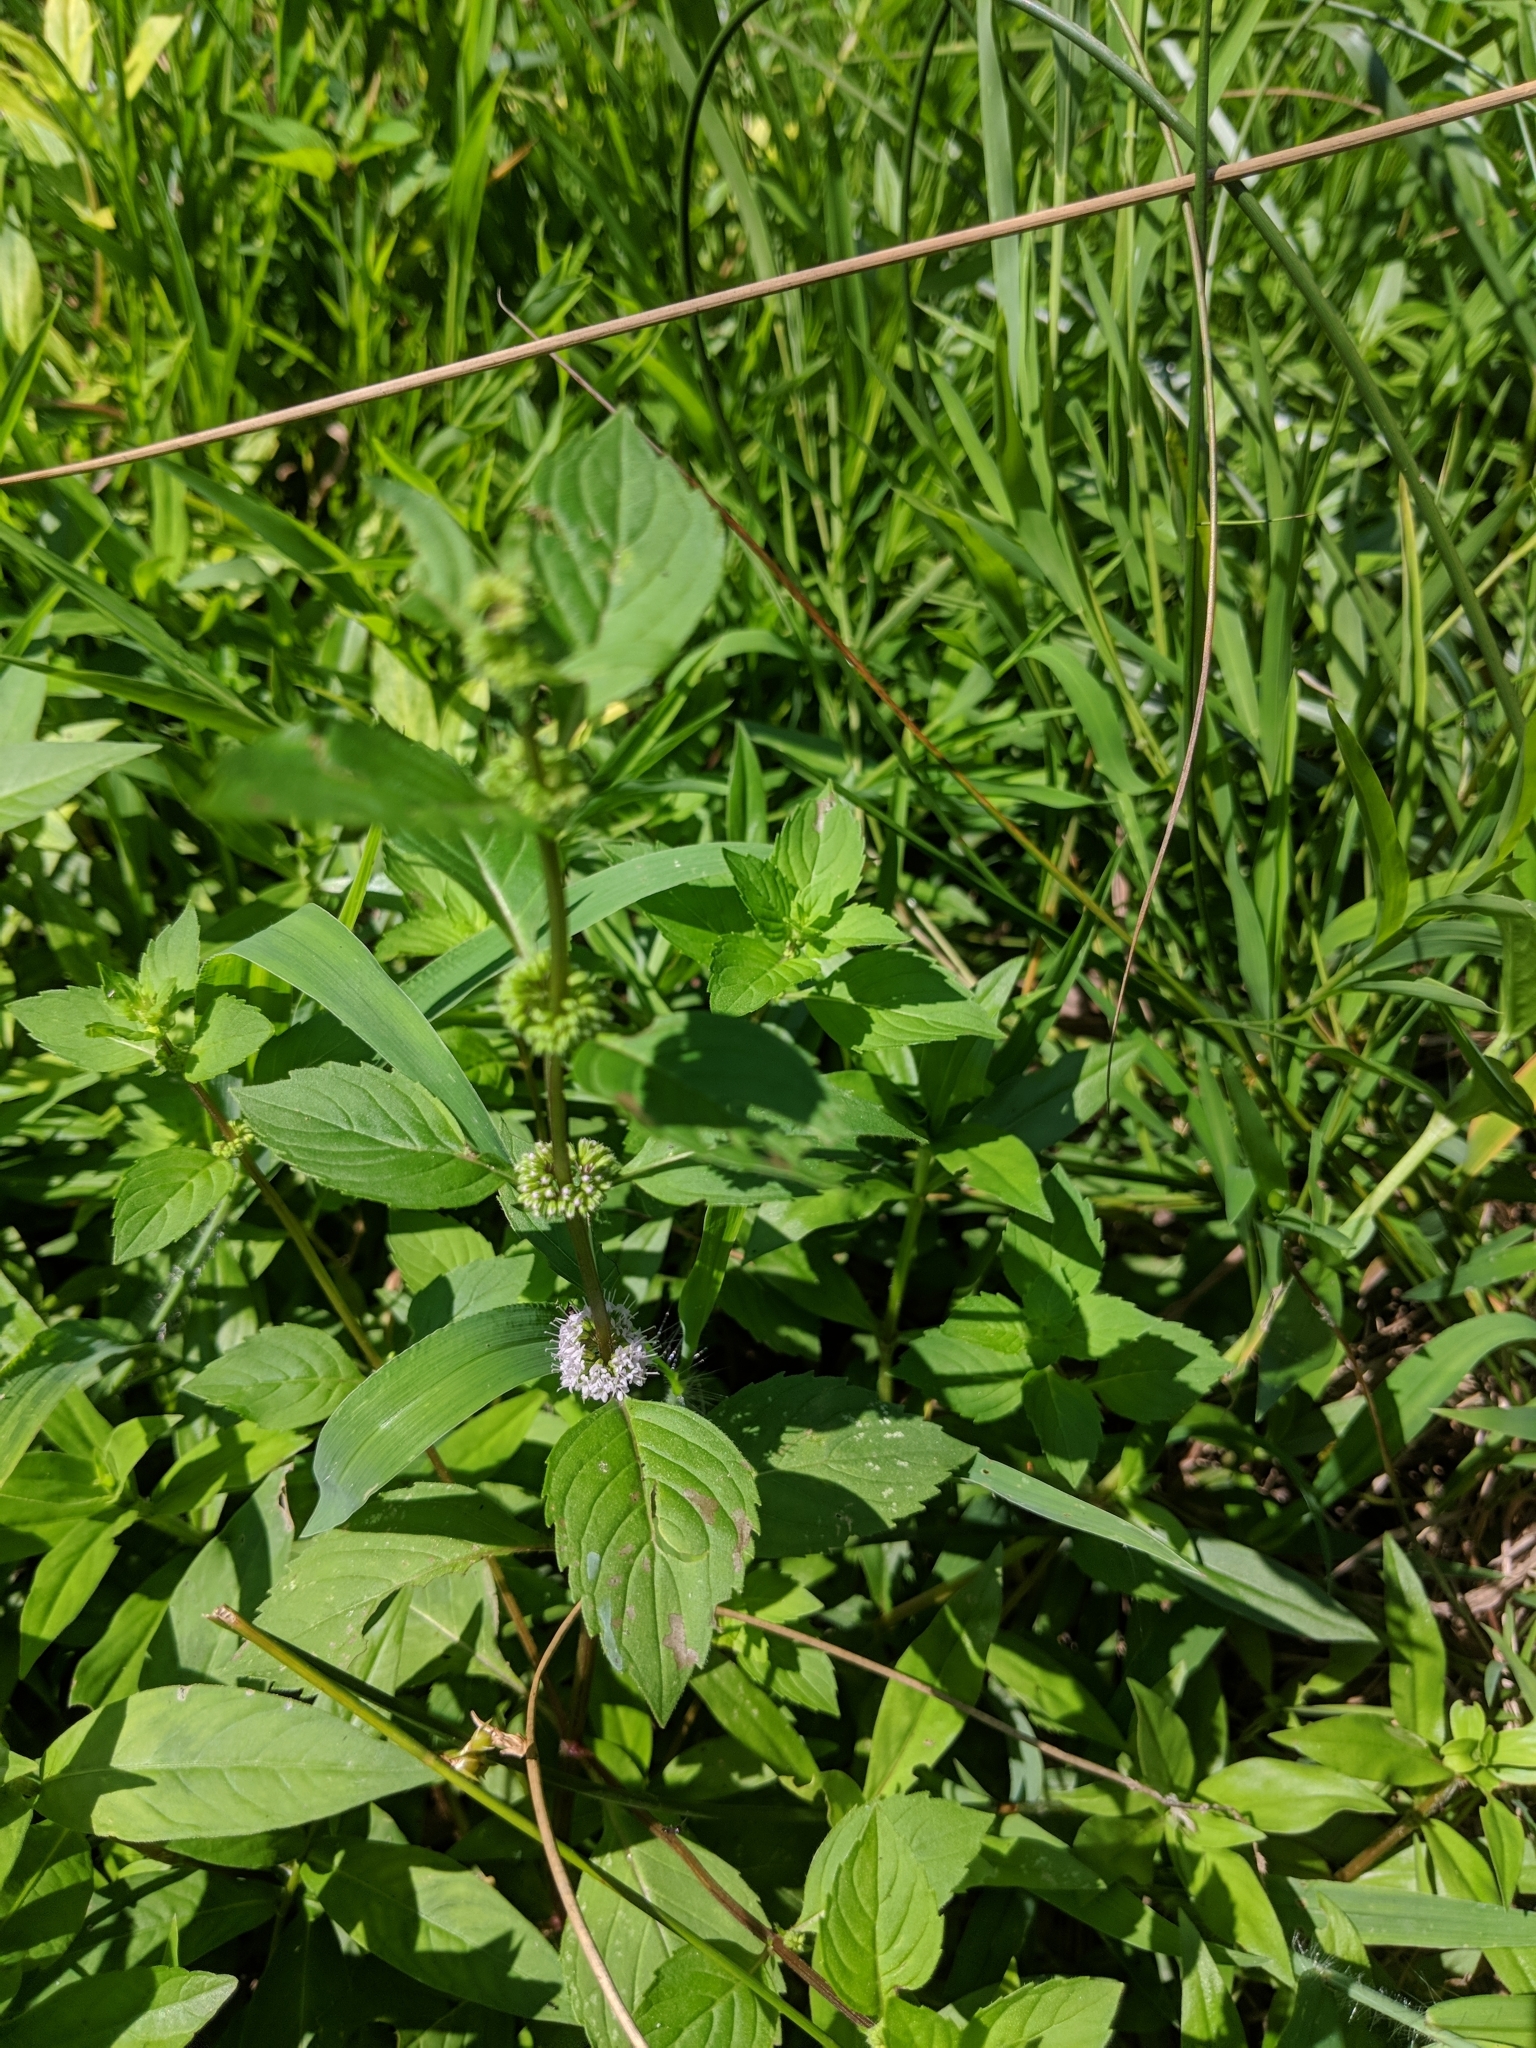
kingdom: Plantae
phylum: Tracheophyta
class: Magnoliopsida
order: Lamiales
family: Lamiaceae
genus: Mentha
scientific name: Mentha arvensis
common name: Corn mint
